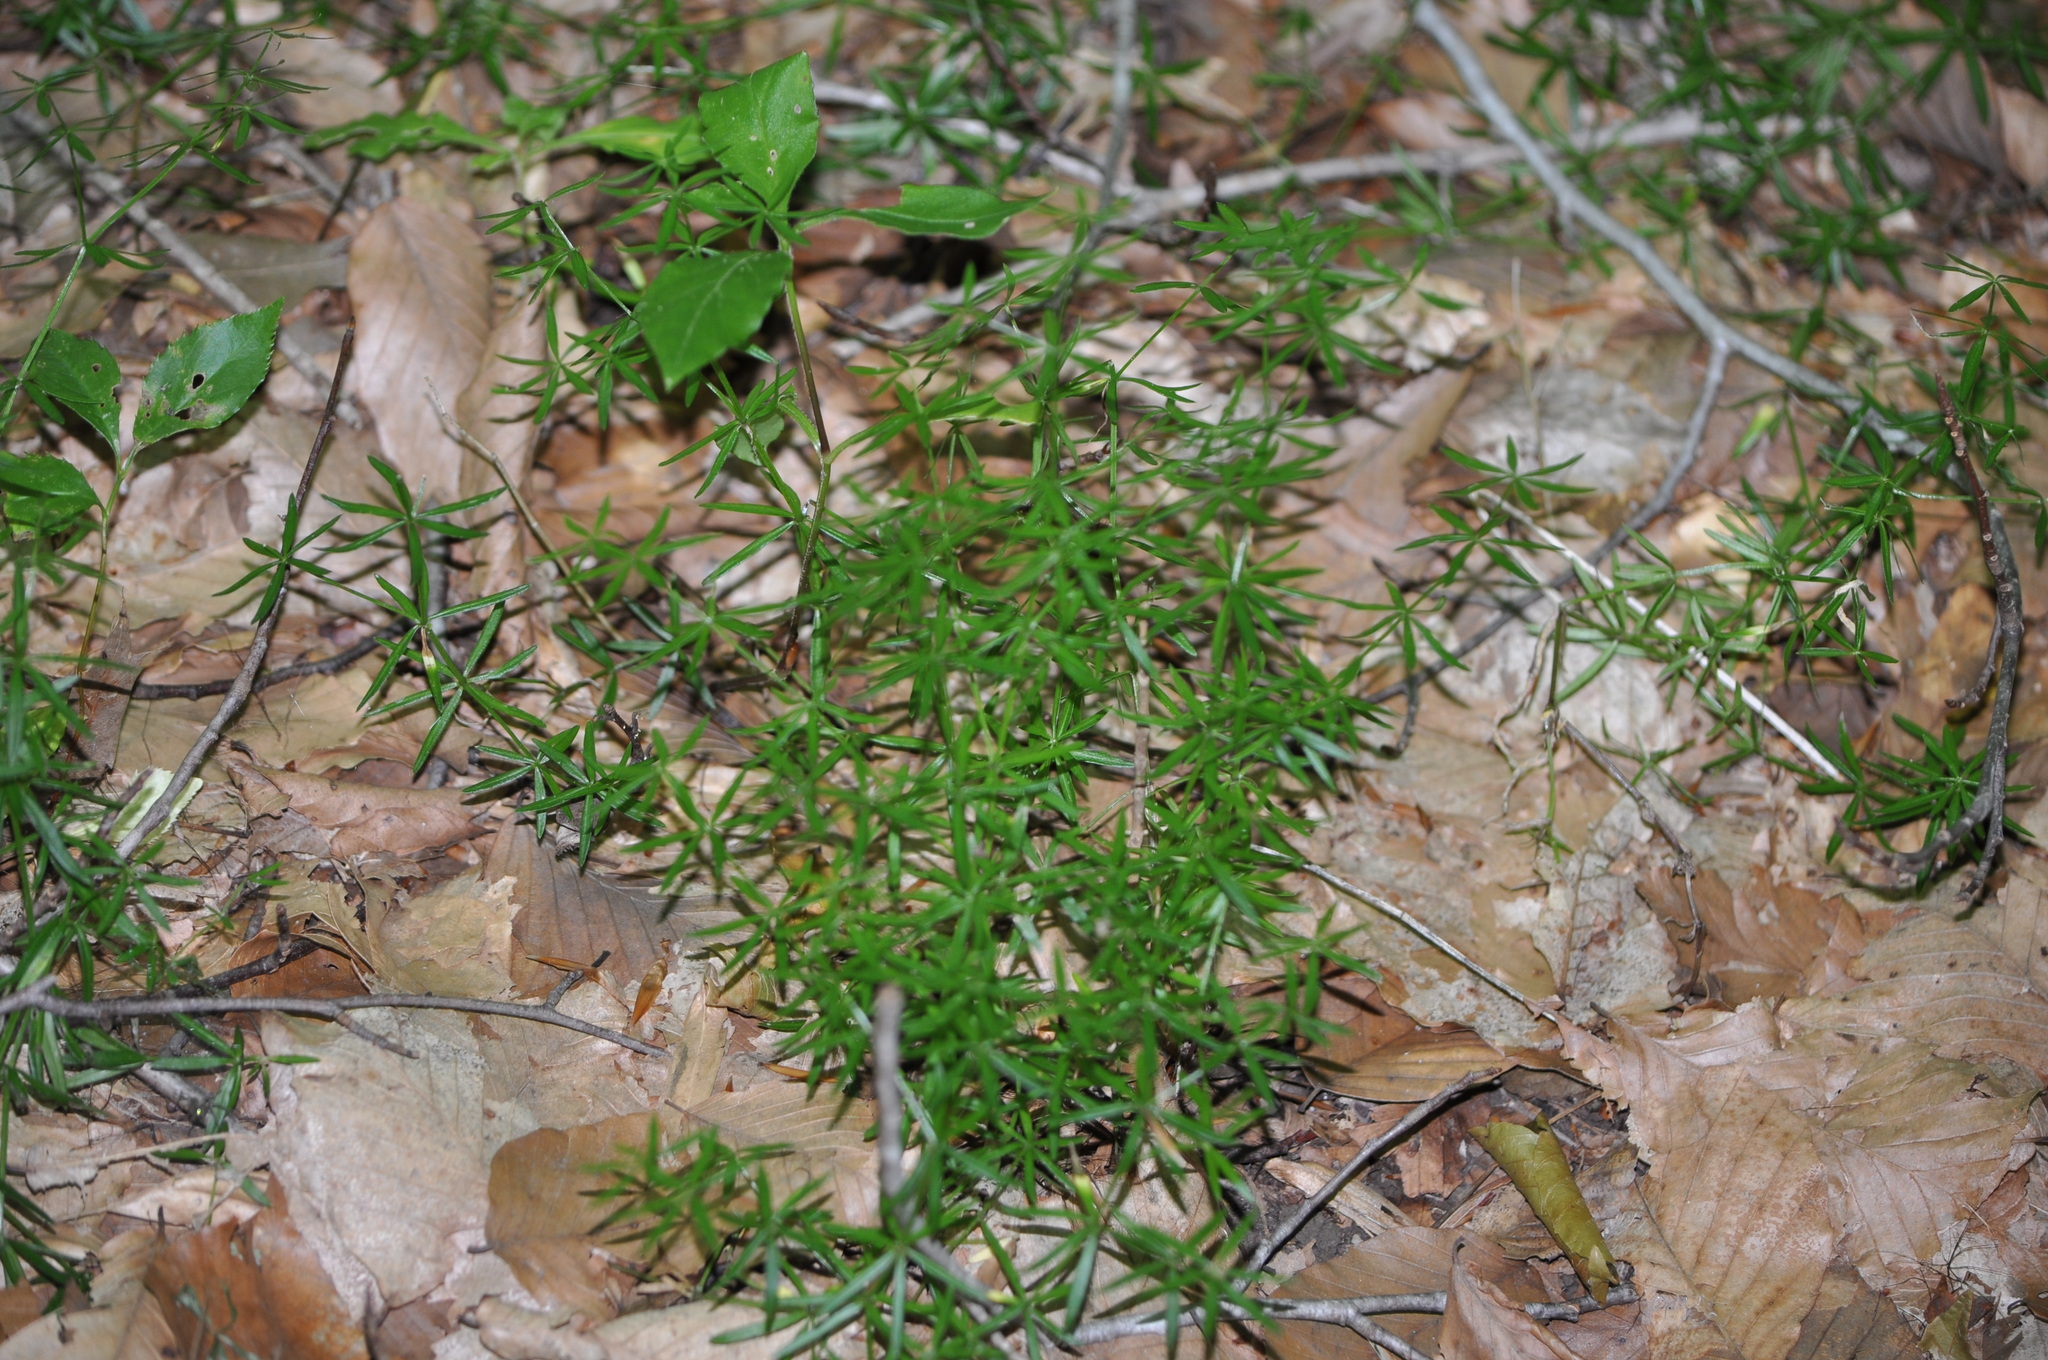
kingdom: Plantae
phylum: Tracheophyta
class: Magnoliopsida
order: Gentianales
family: Rubiaceae
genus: Galium
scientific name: Galium concinnum
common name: Shining bedstraw
